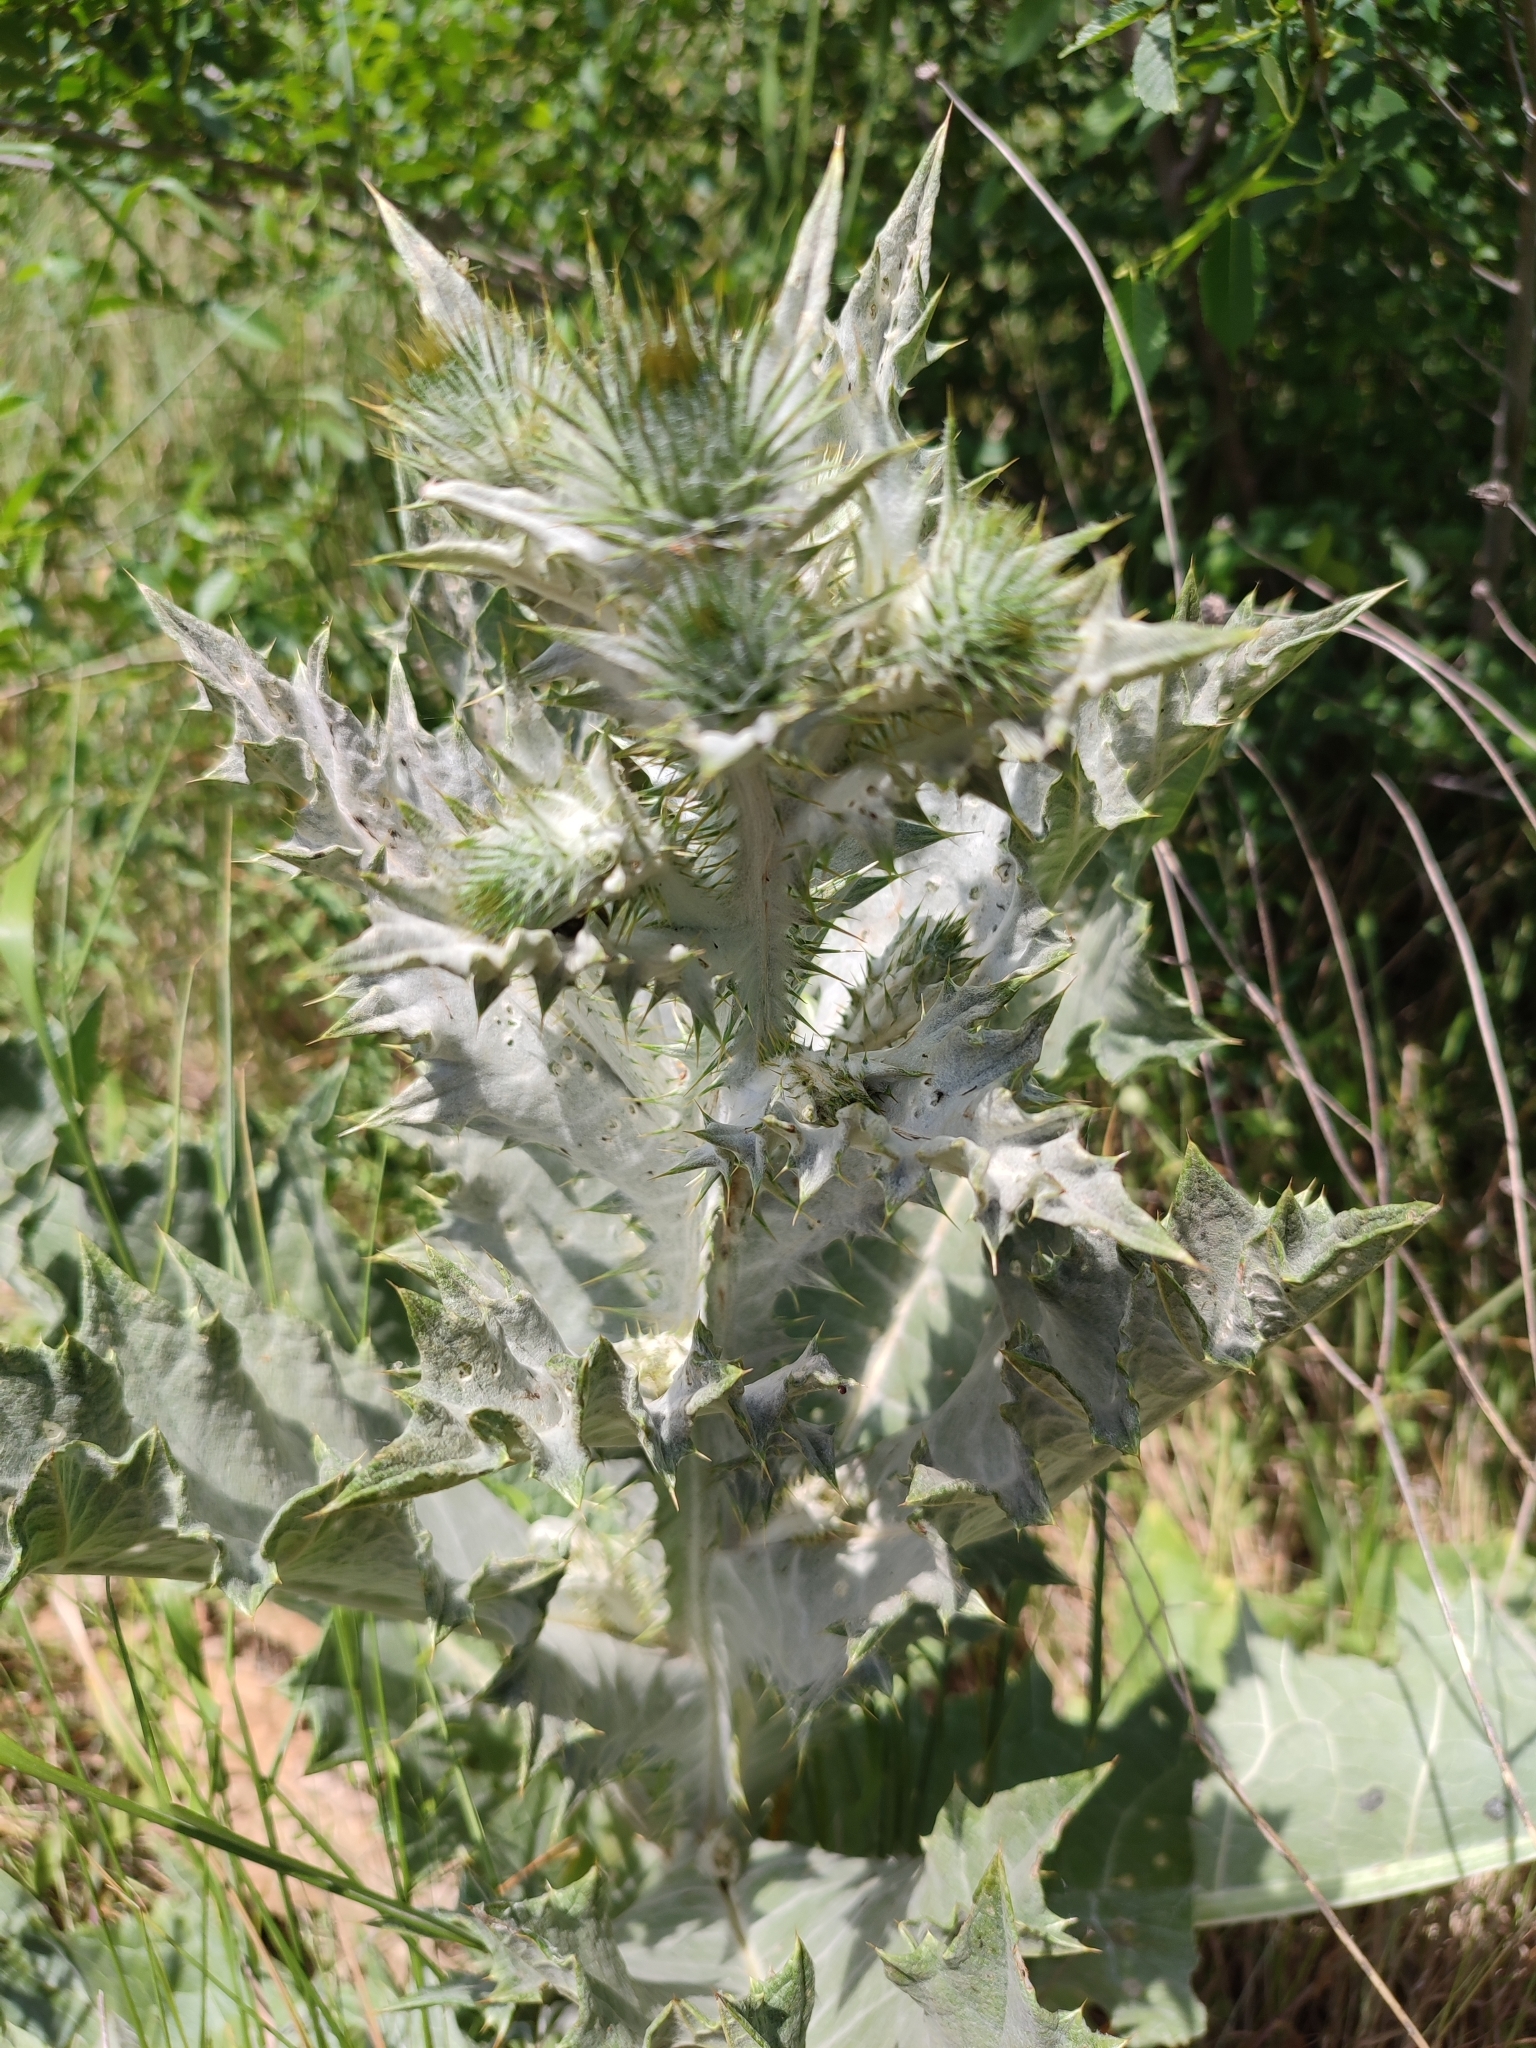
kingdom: Plantae
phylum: Tracheophyta
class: Magnoliopsida
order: Asterales
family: Asteraceae
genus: Onopordum
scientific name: Onopordum acanthium
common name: Scotch thistle
